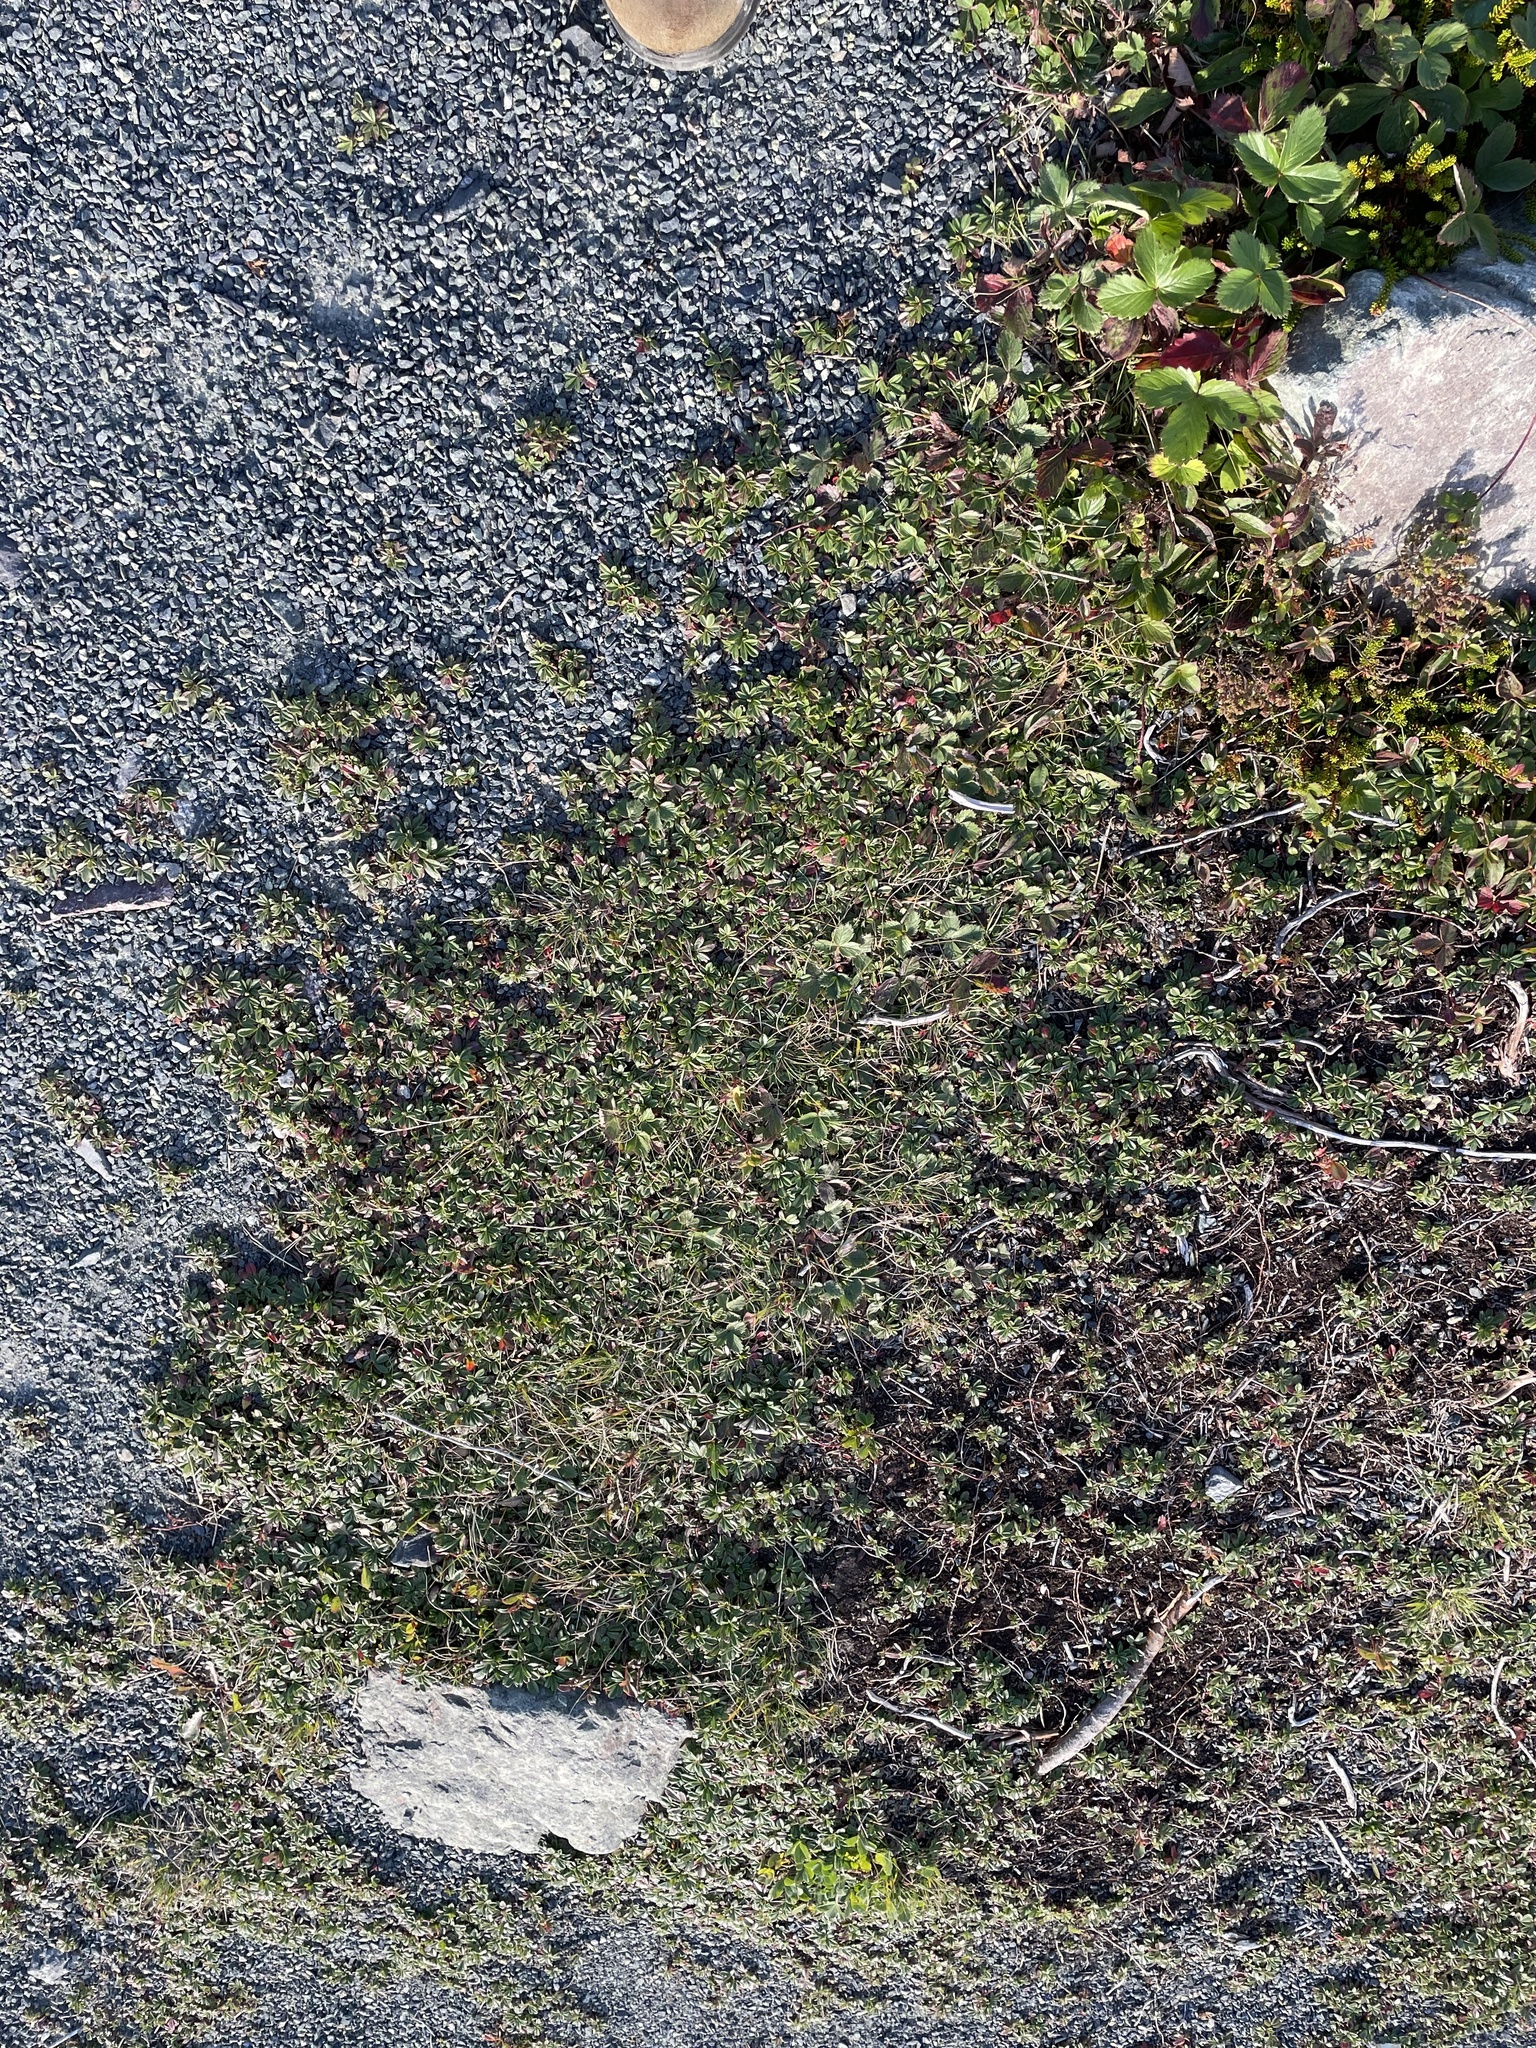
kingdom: Plantae
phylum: Tracheophyta
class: Magnoliopsida
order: Rosales
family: Rosaceae
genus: Sibbaldia
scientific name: Sibbaldia tridentata
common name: Three-toothed cinquefoil
